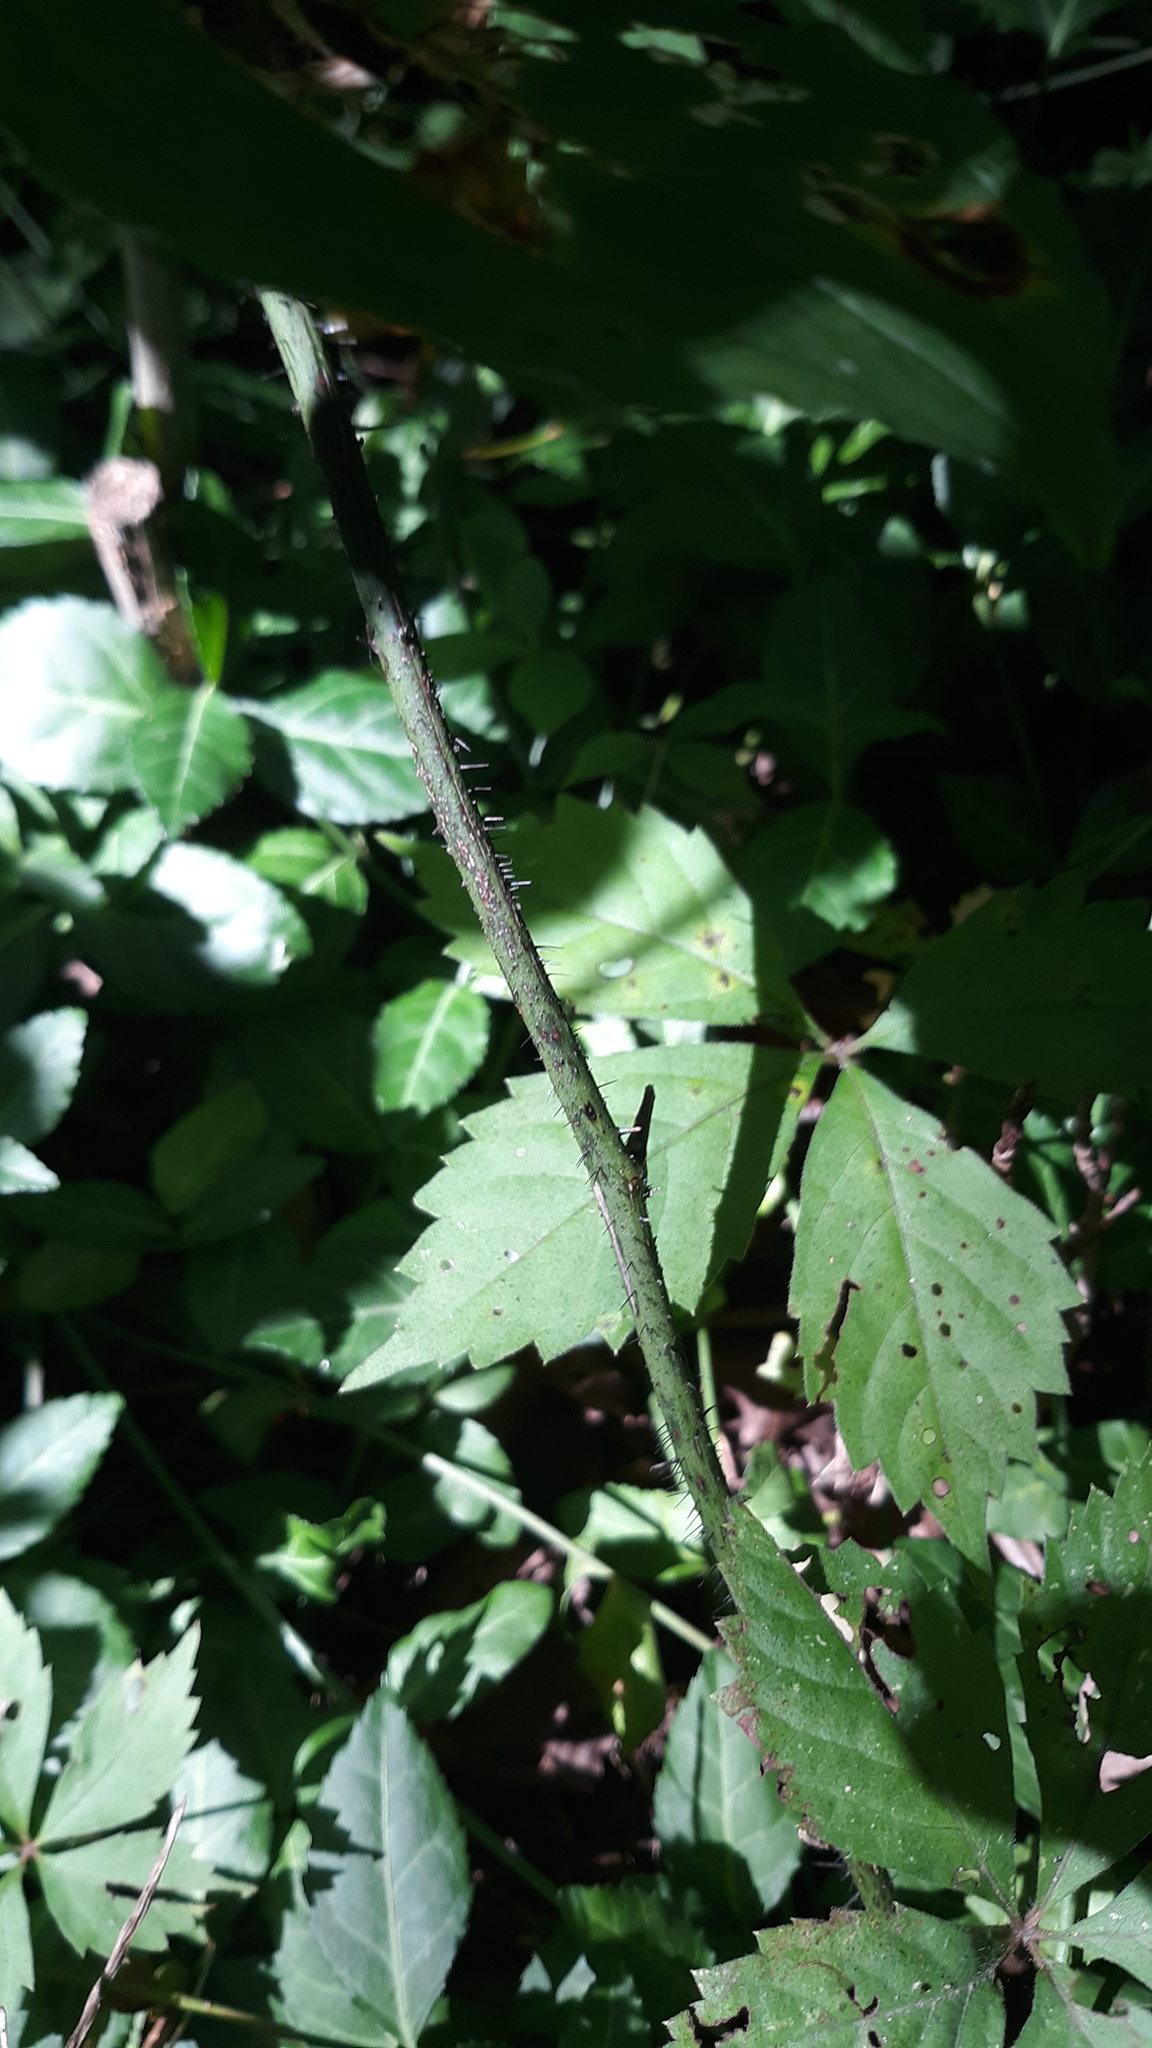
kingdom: Plantae
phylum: Tracheophyta
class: Liliopsida
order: Liliales
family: Smilacaceae
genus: Smilax
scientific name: Smilax tamnoides
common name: Hellfetter
